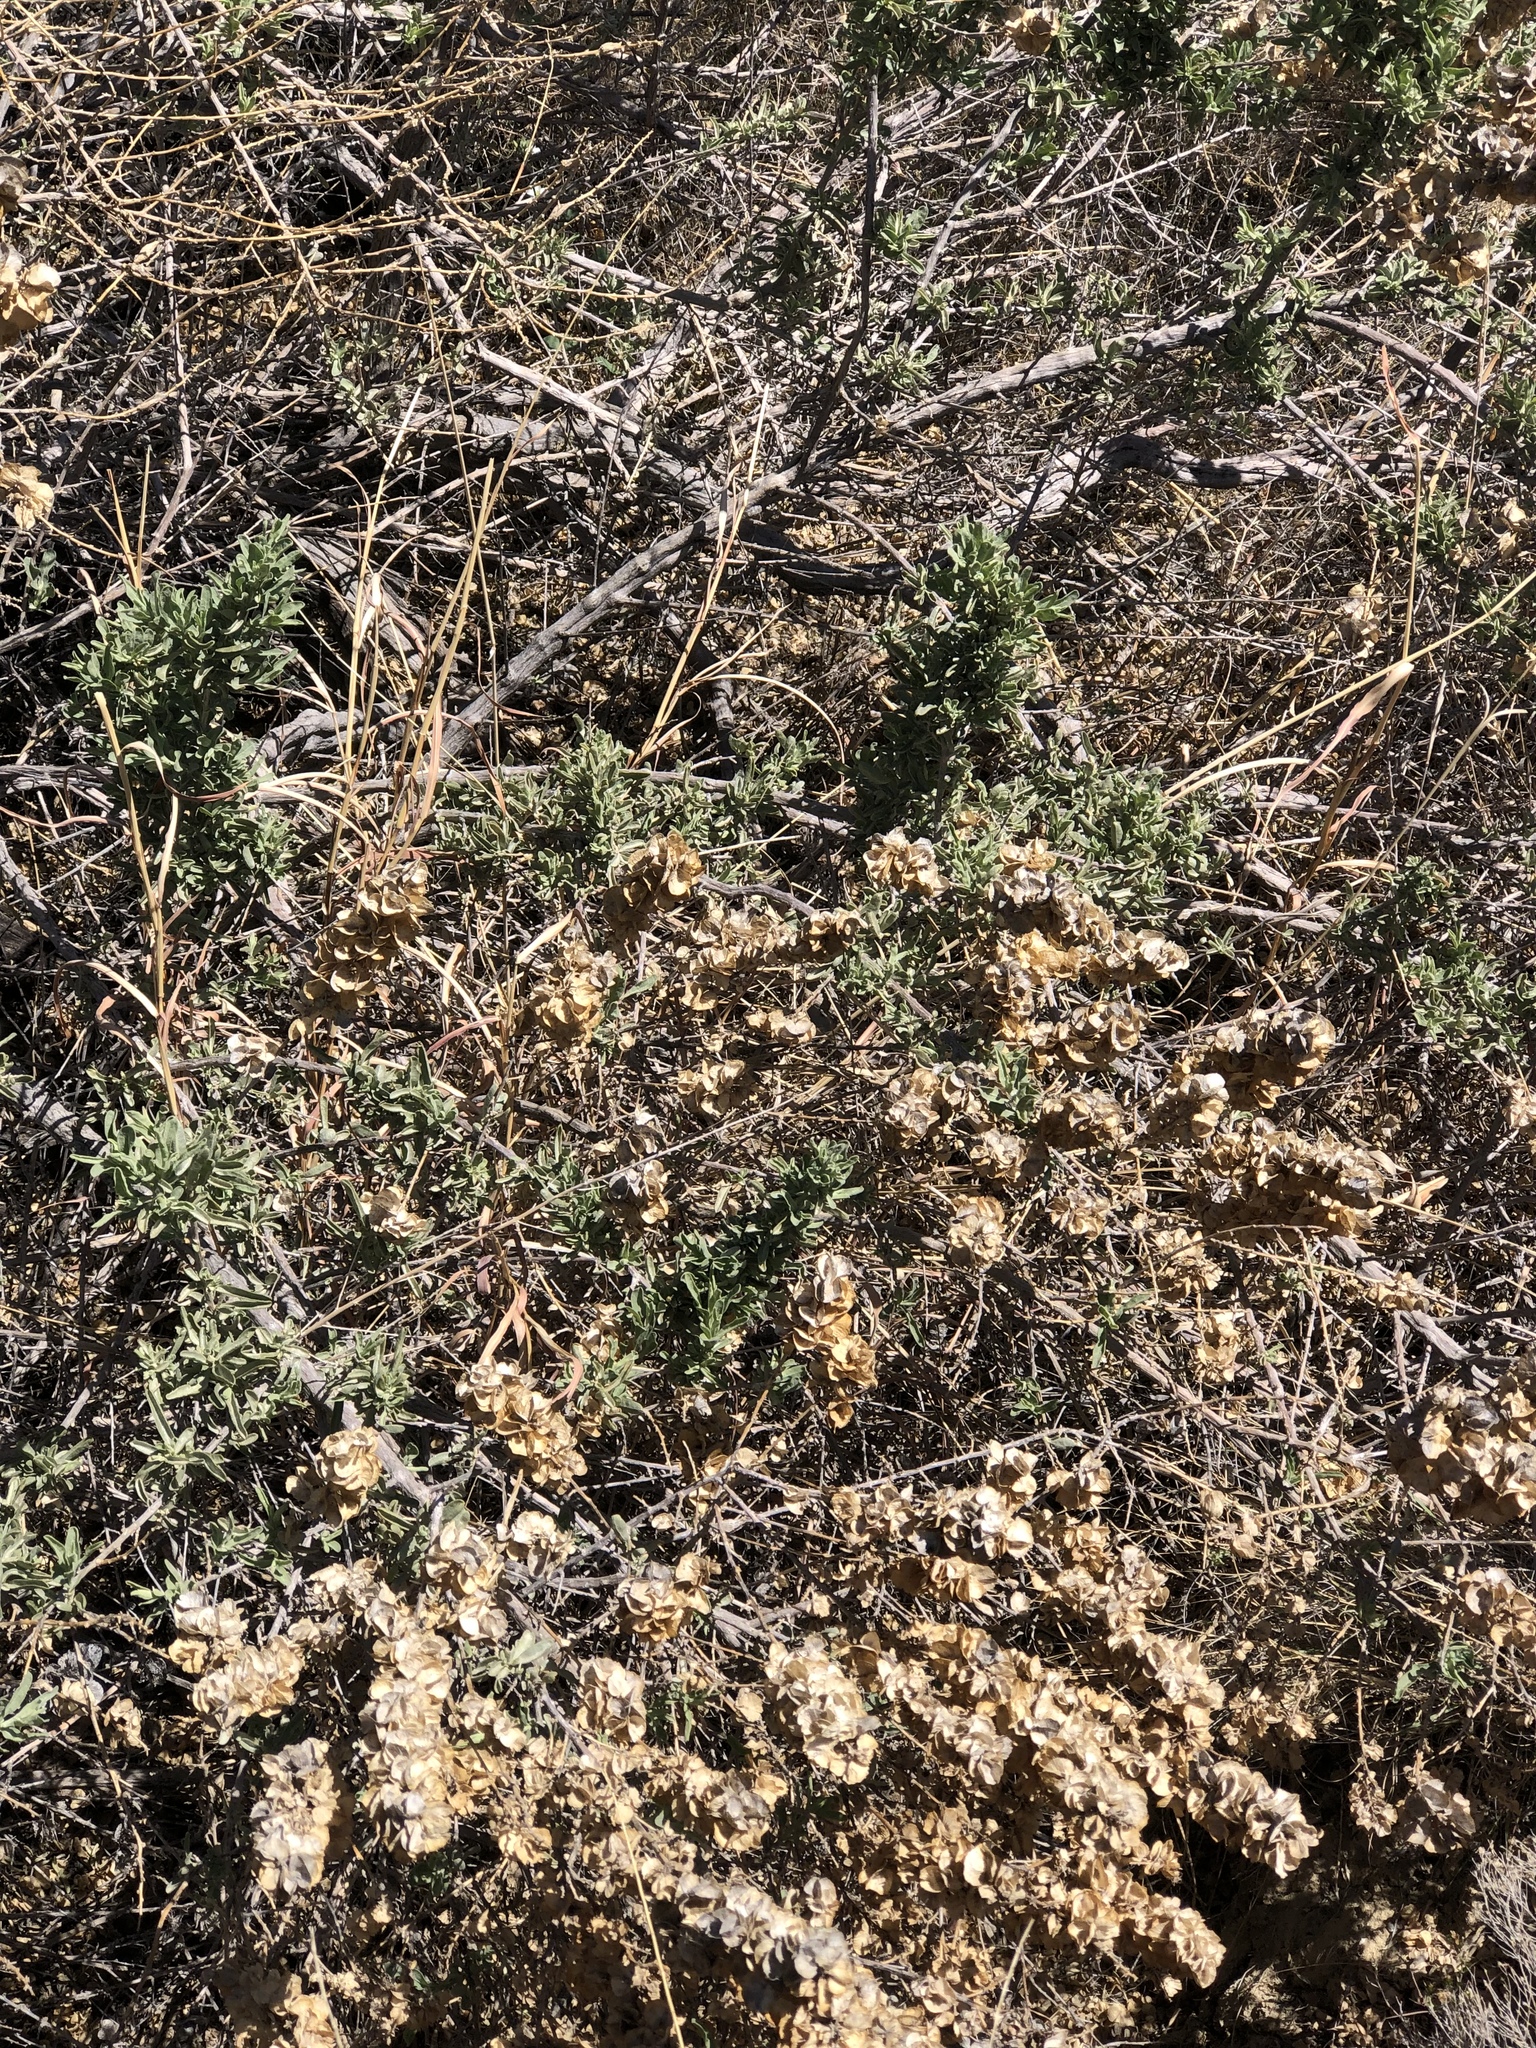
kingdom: Plantae
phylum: Tracheophyta
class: Magnoliopsida
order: Caryophyllales
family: Amaranthaceae
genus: Atriplex
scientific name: Atriplex canescens
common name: Four-wing saltbush
